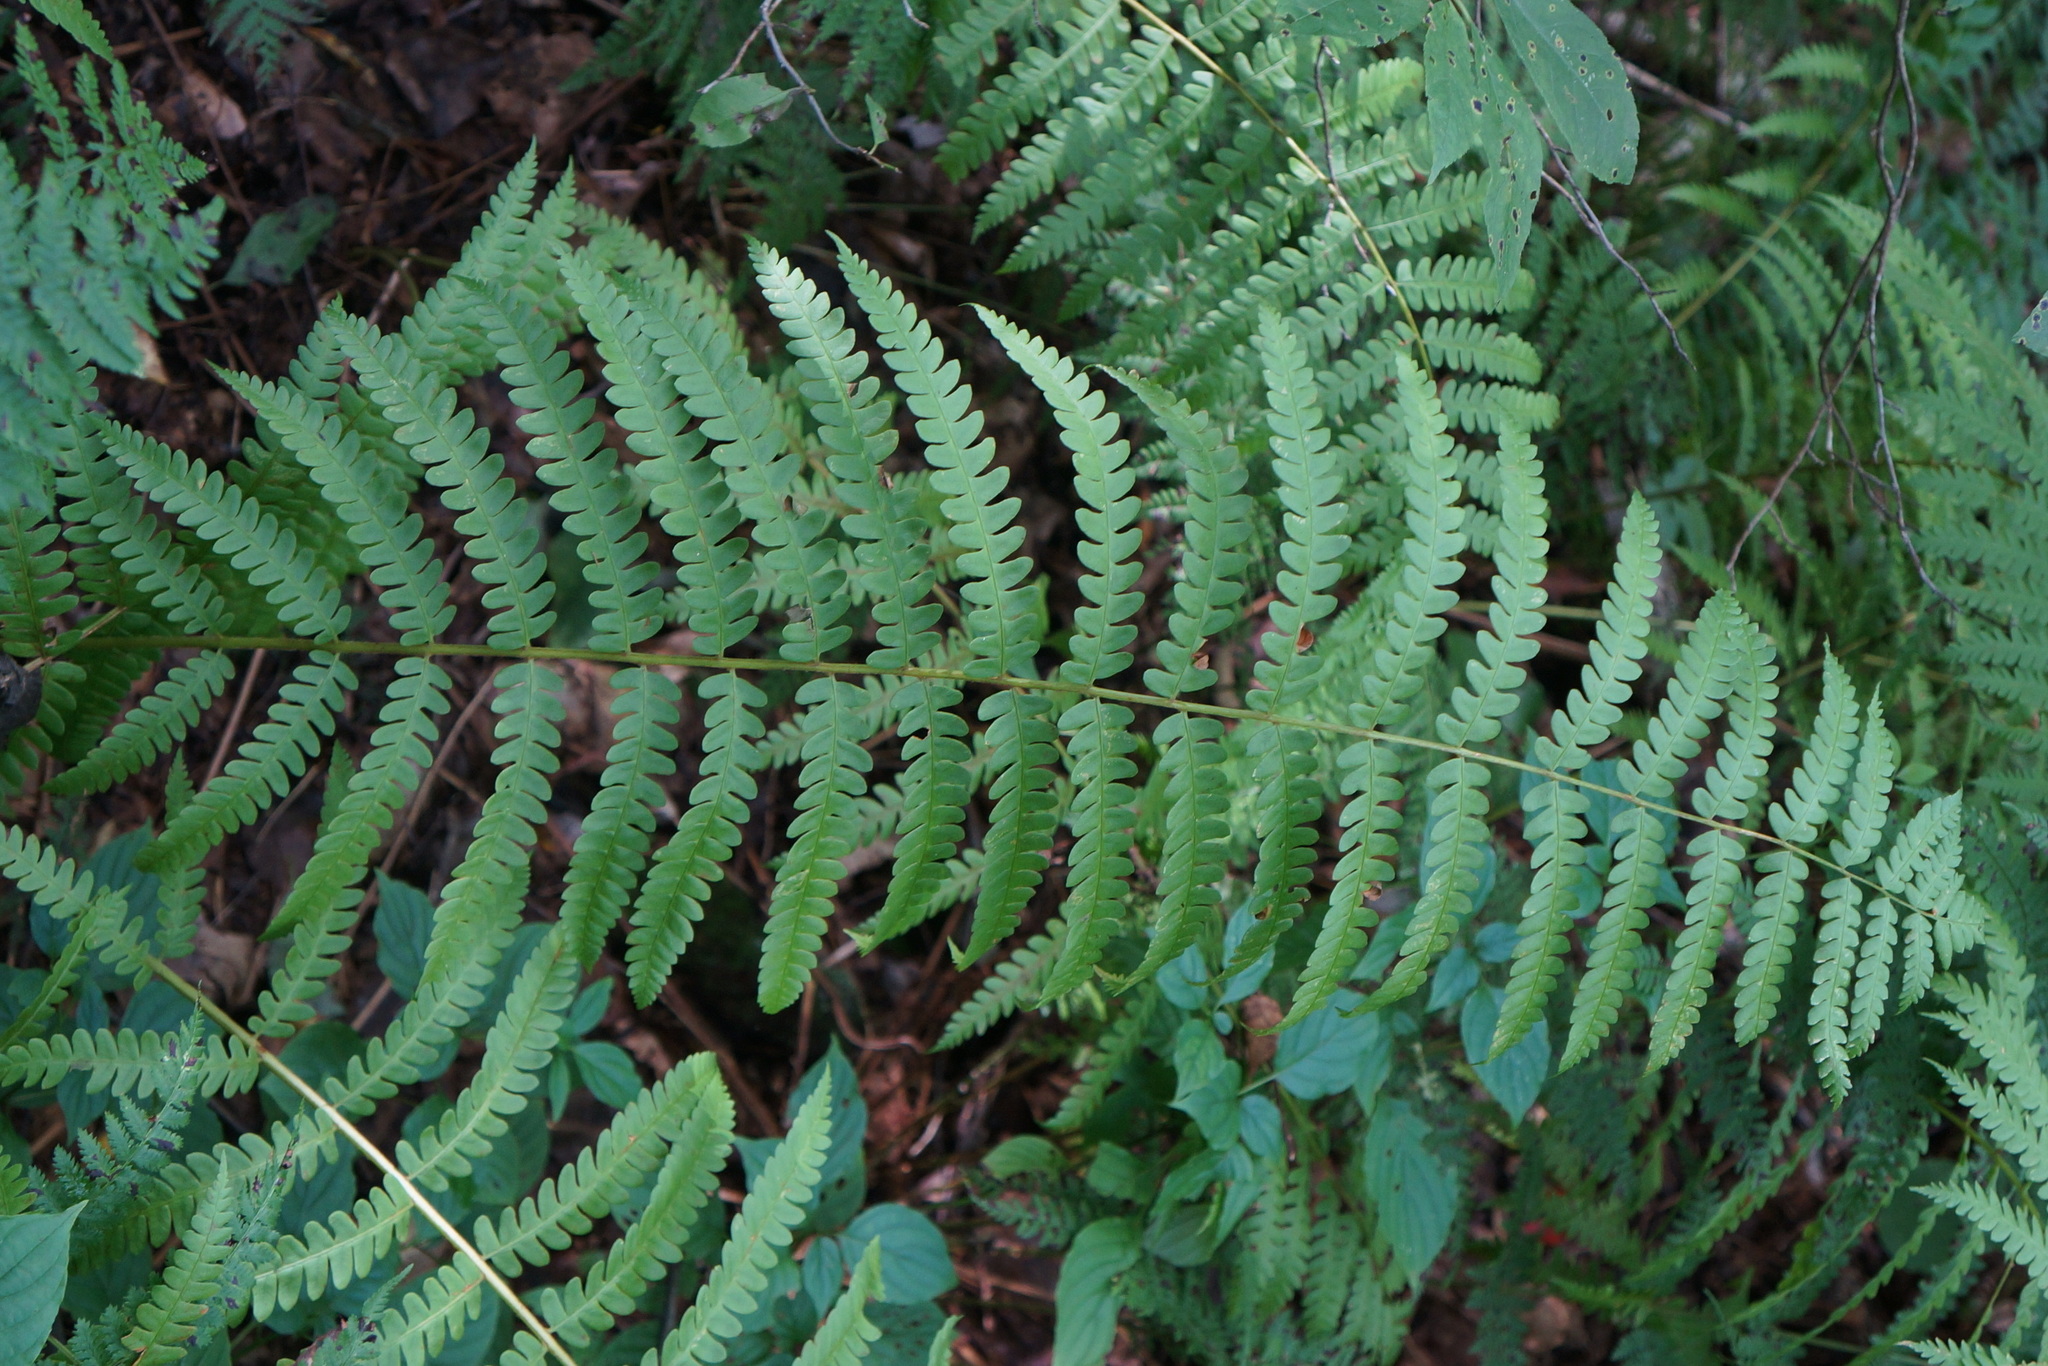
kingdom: Plantae
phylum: Tracheophyta
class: Polypodiopsida
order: Osmundales
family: Osmundaceae
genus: Osmundastrum
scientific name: Osmundastrum cinnamomeum
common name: Cinnamon fern
